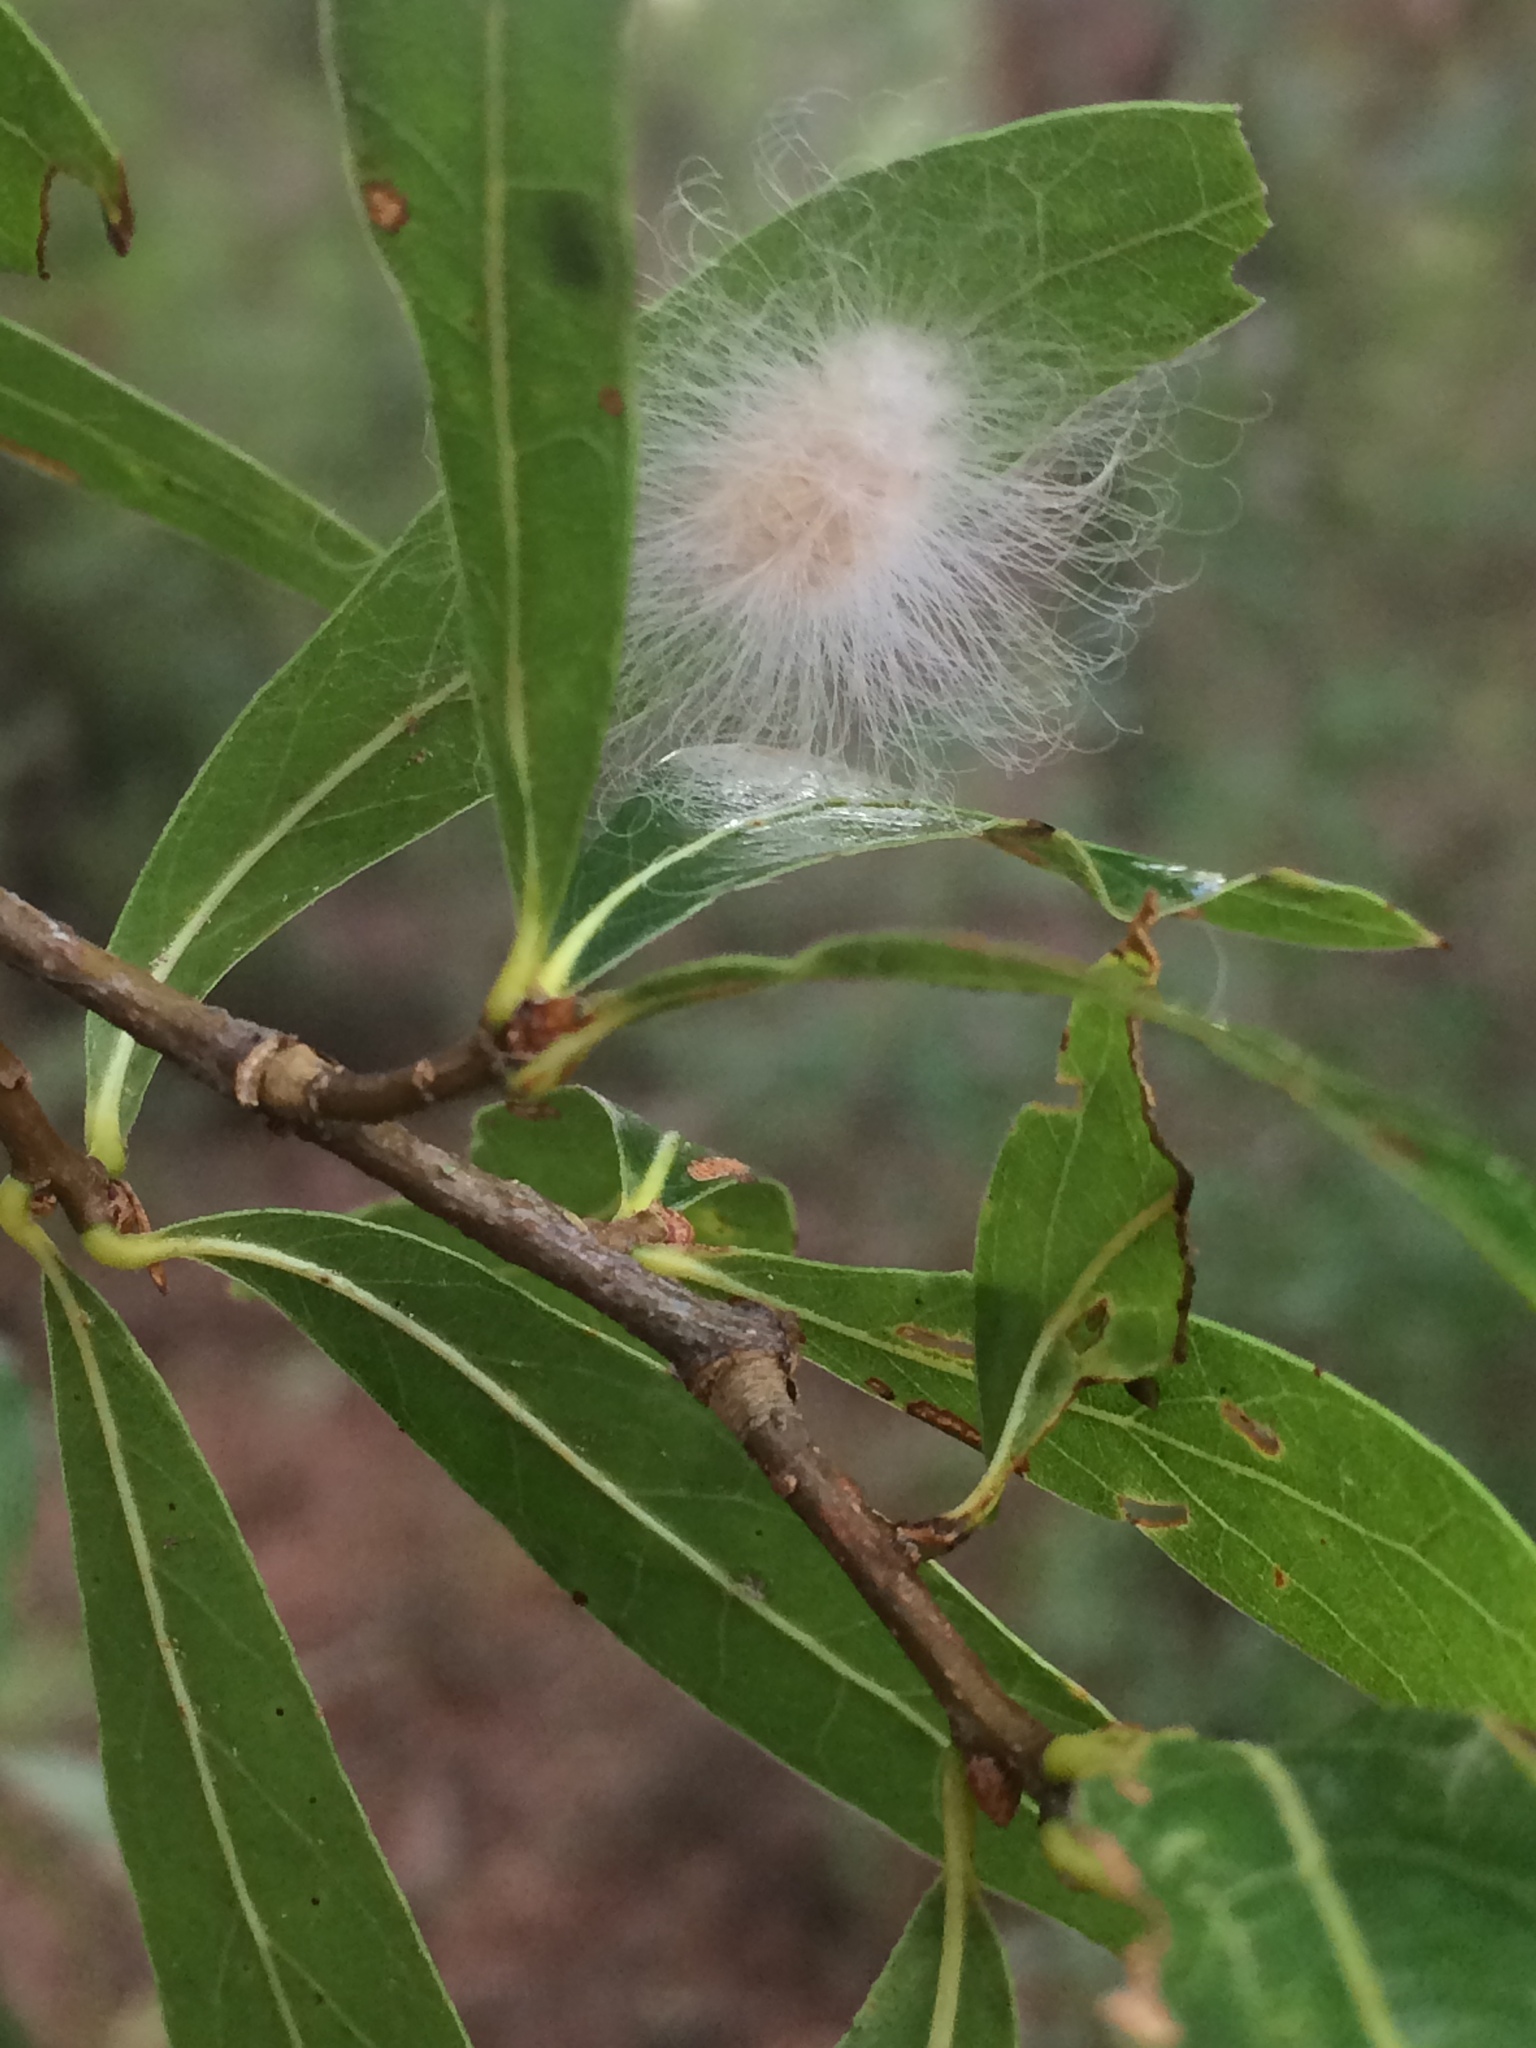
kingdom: Animalia
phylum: Arthropoda
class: Insecta
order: Lepidoptera
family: Megalopygidae
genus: Megalopyge
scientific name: Megalopyge
